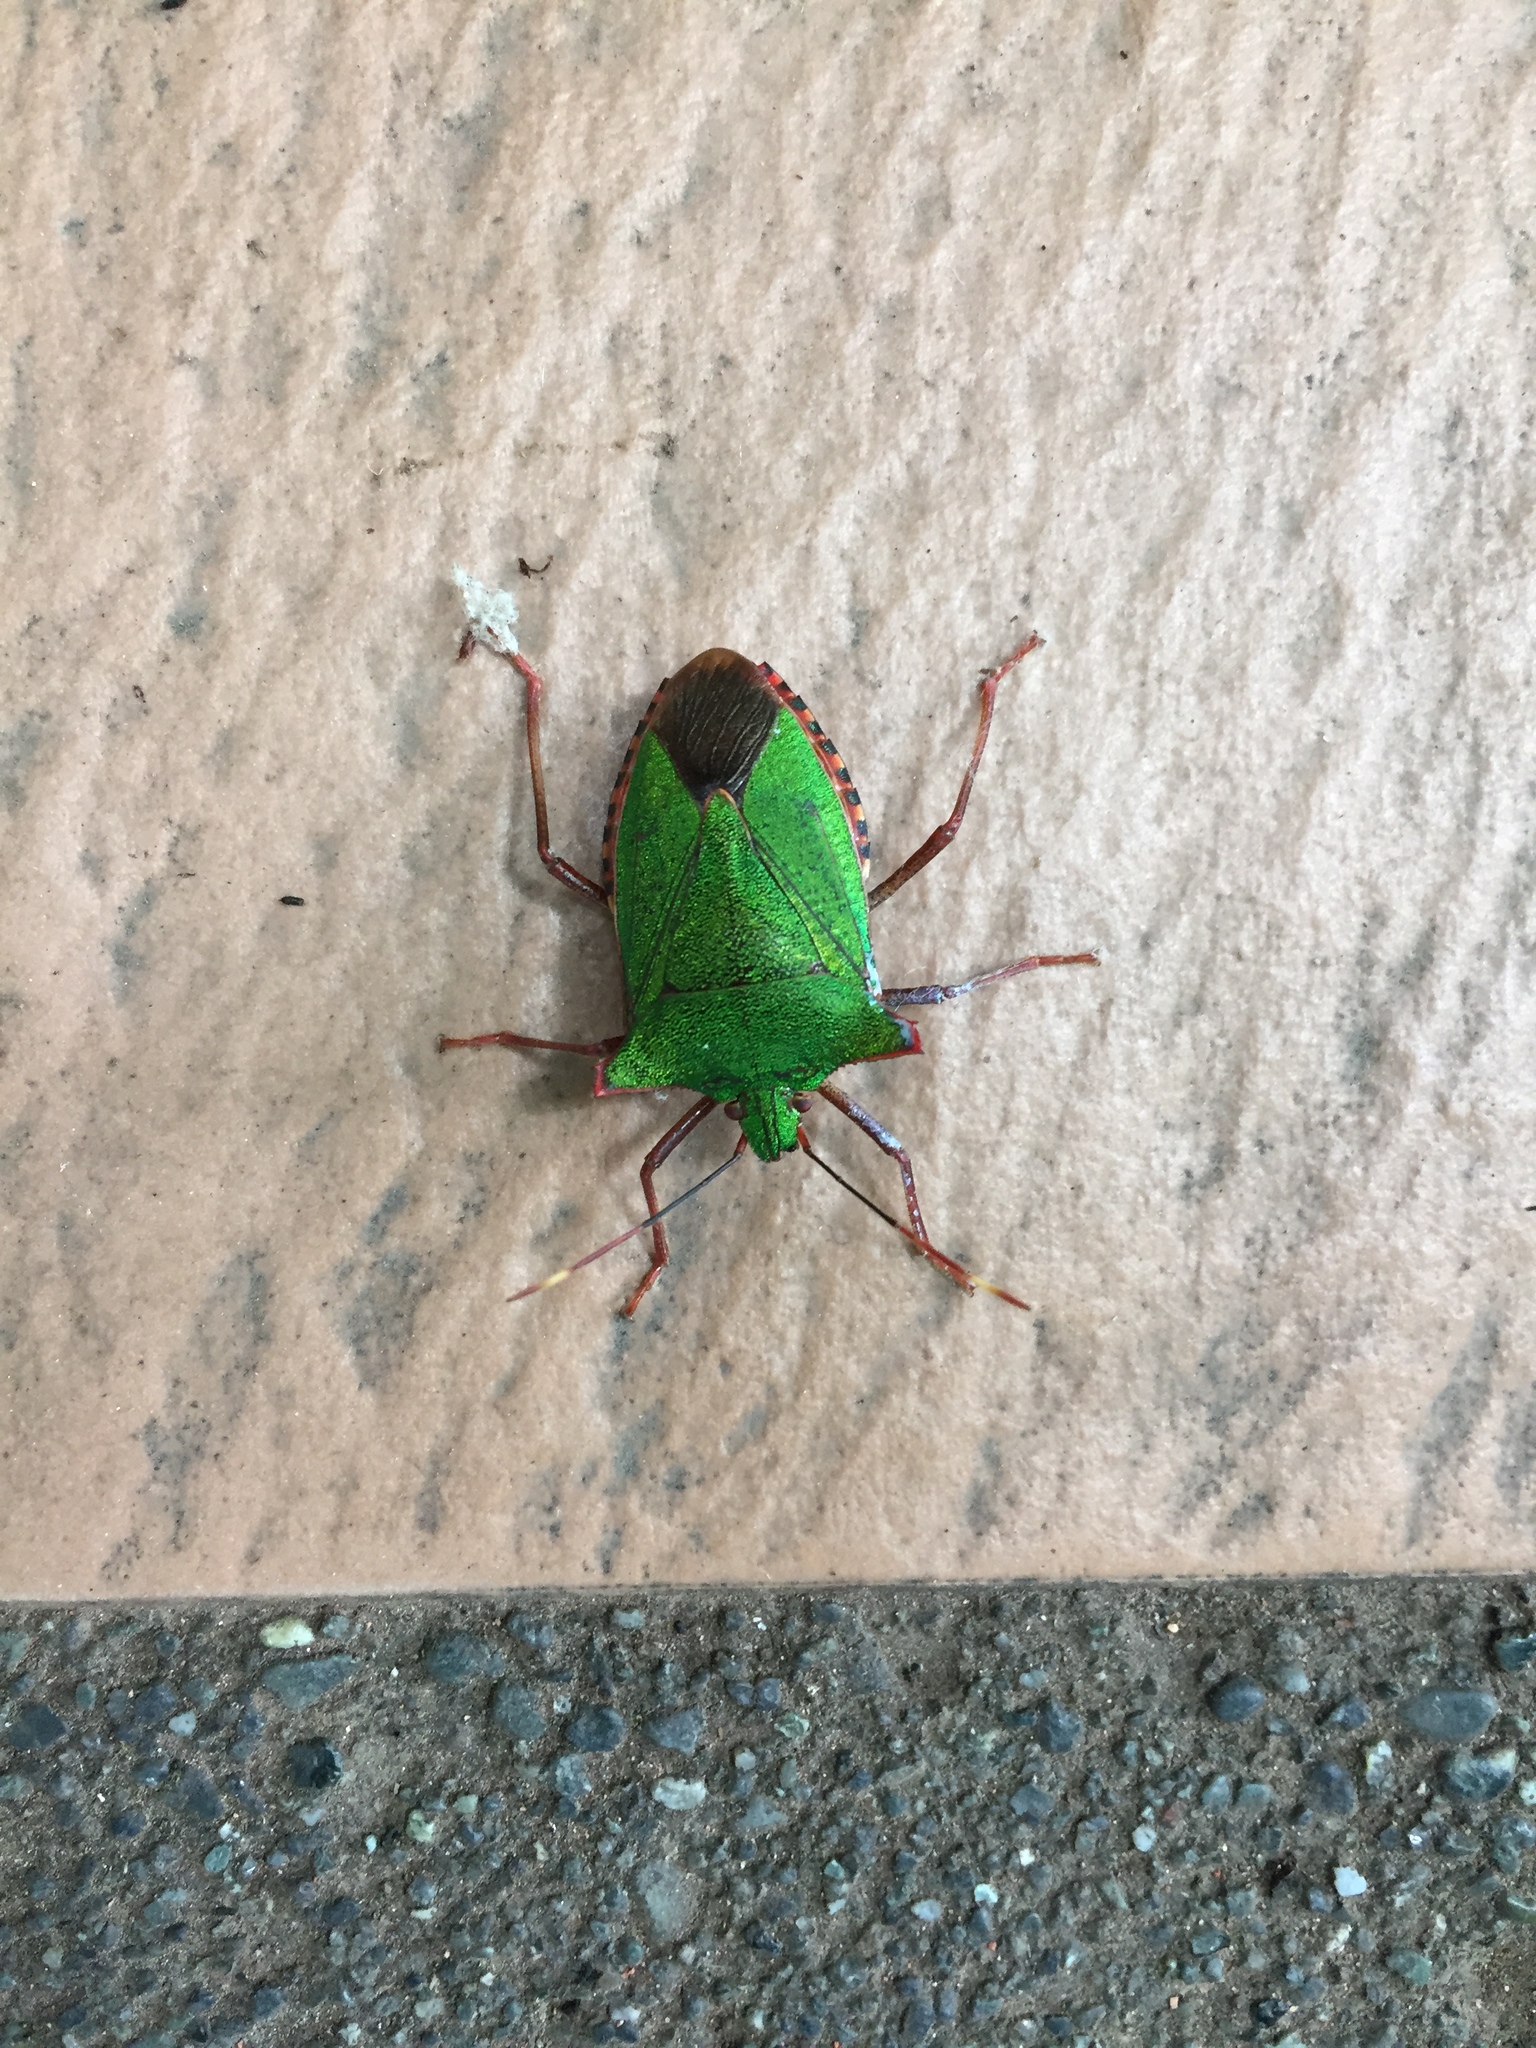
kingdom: Animalia
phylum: Arthropoda
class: Insecta
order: Hemiptera
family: Pentatomidae
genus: Pentatoma
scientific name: Pentatoma japonica
